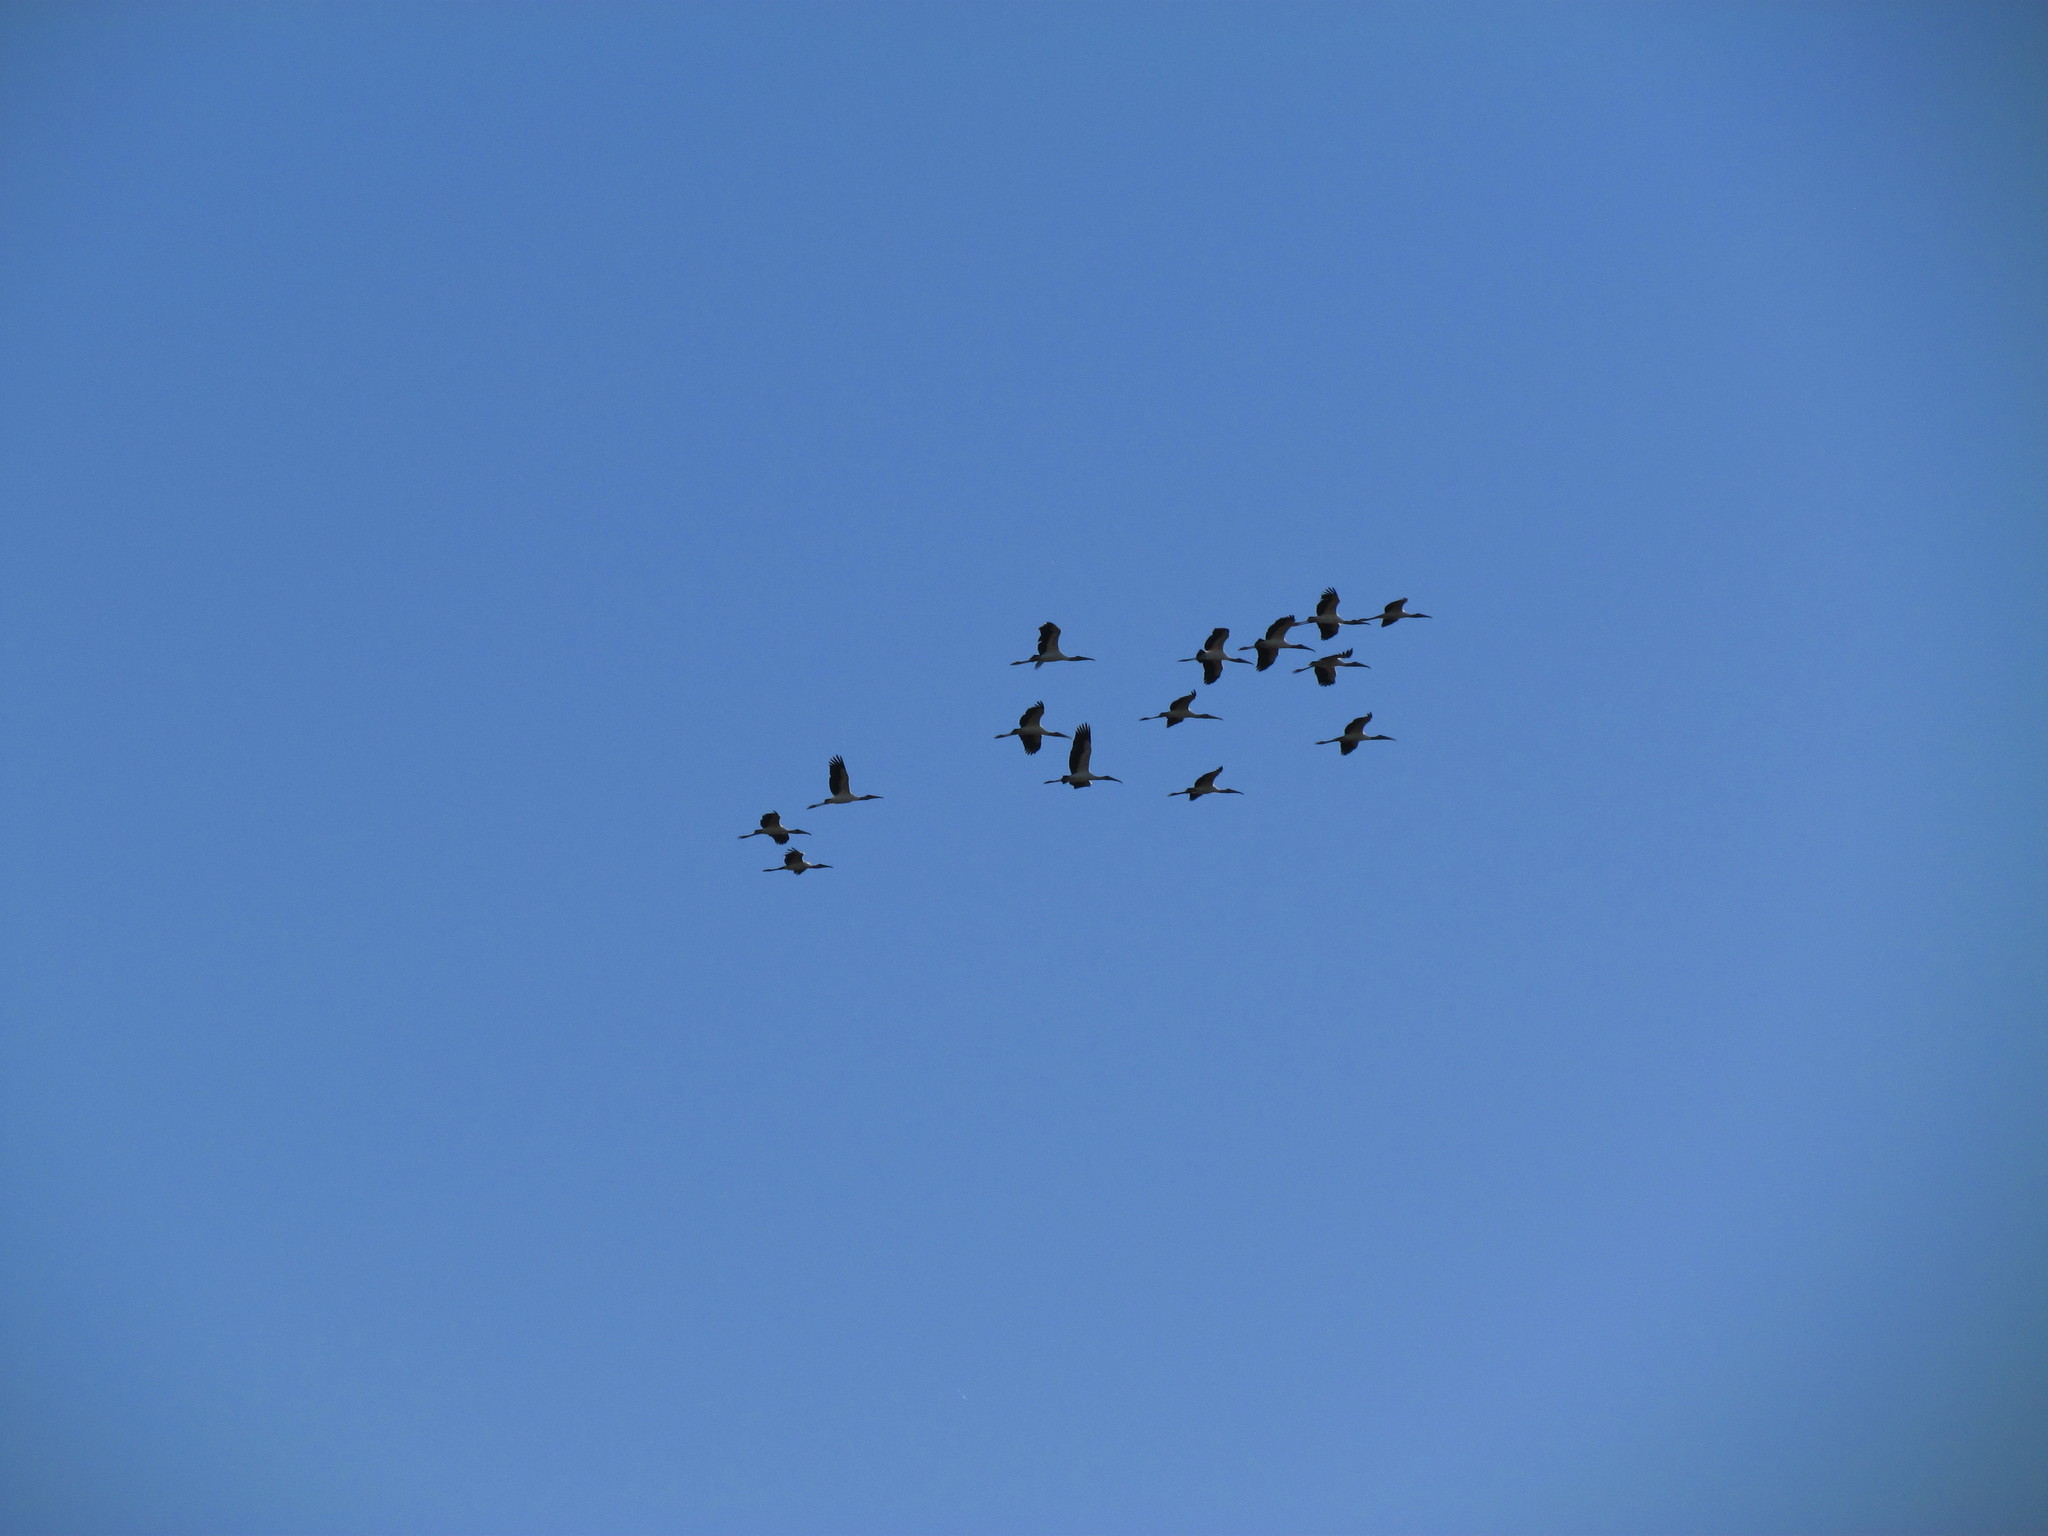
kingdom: Animalia
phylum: Chordata
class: Aves
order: Ciconiiformes
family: Ciconiidae
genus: Mycteria
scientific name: Mycteria americana
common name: Wood stork
